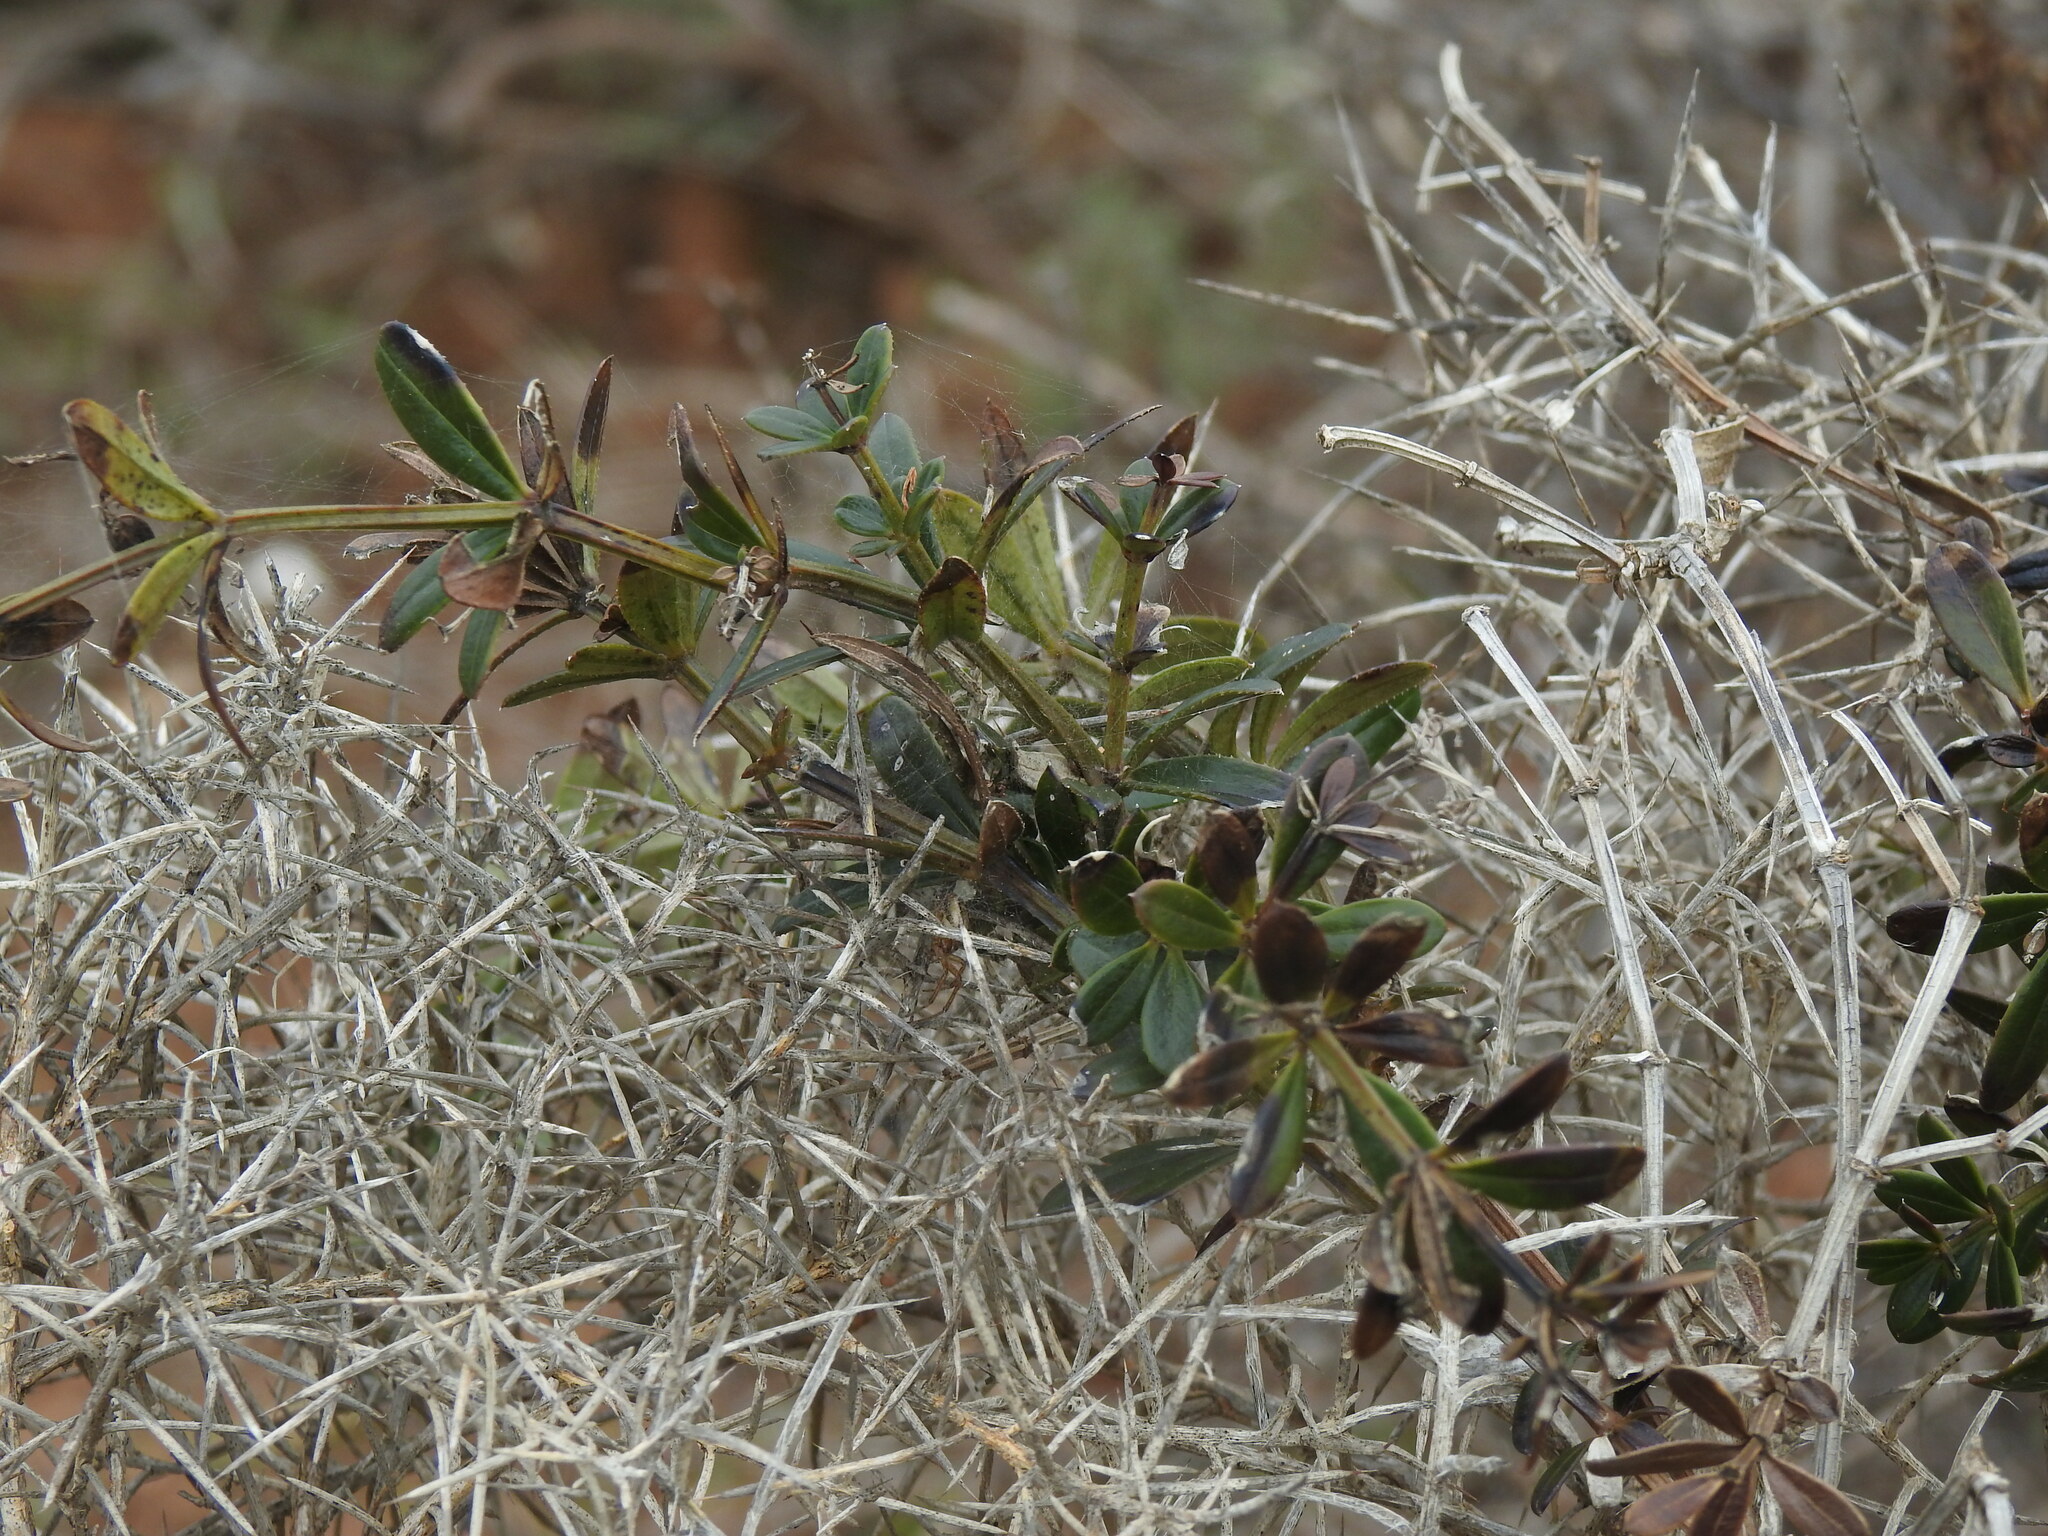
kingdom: Plantae
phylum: Tracheophyta
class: Magnoliopsida
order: Gentianales
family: Rubiaceae
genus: Rubia
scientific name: Rubia peregrina
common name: Wild madder
